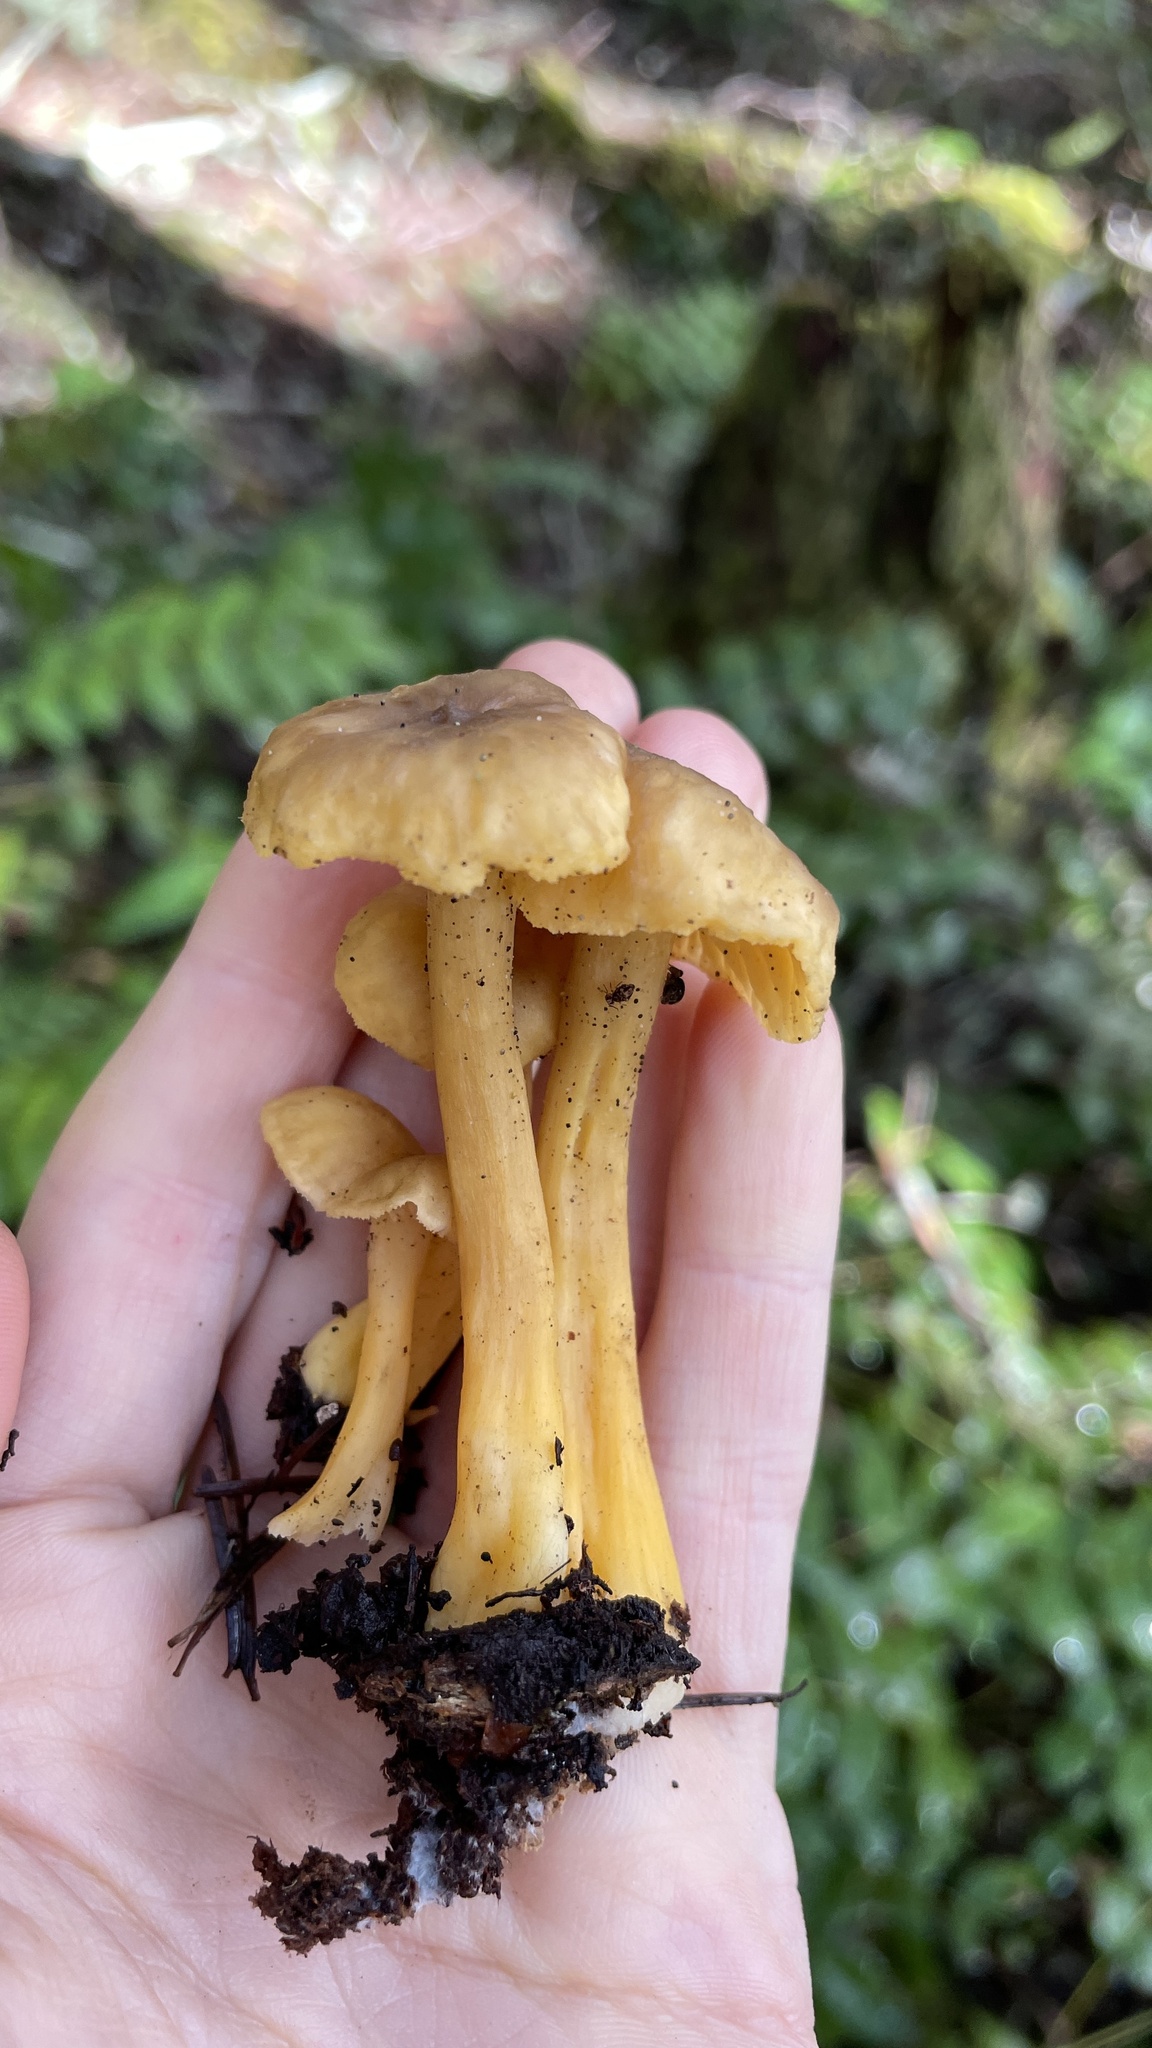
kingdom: Fungi
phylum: Basidiomycota
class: Agaricomycetes
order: Cantharellales
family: Hydnaceae
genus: Craterellus
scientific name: Craterellus tubaeformis
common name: Yellowfoot
